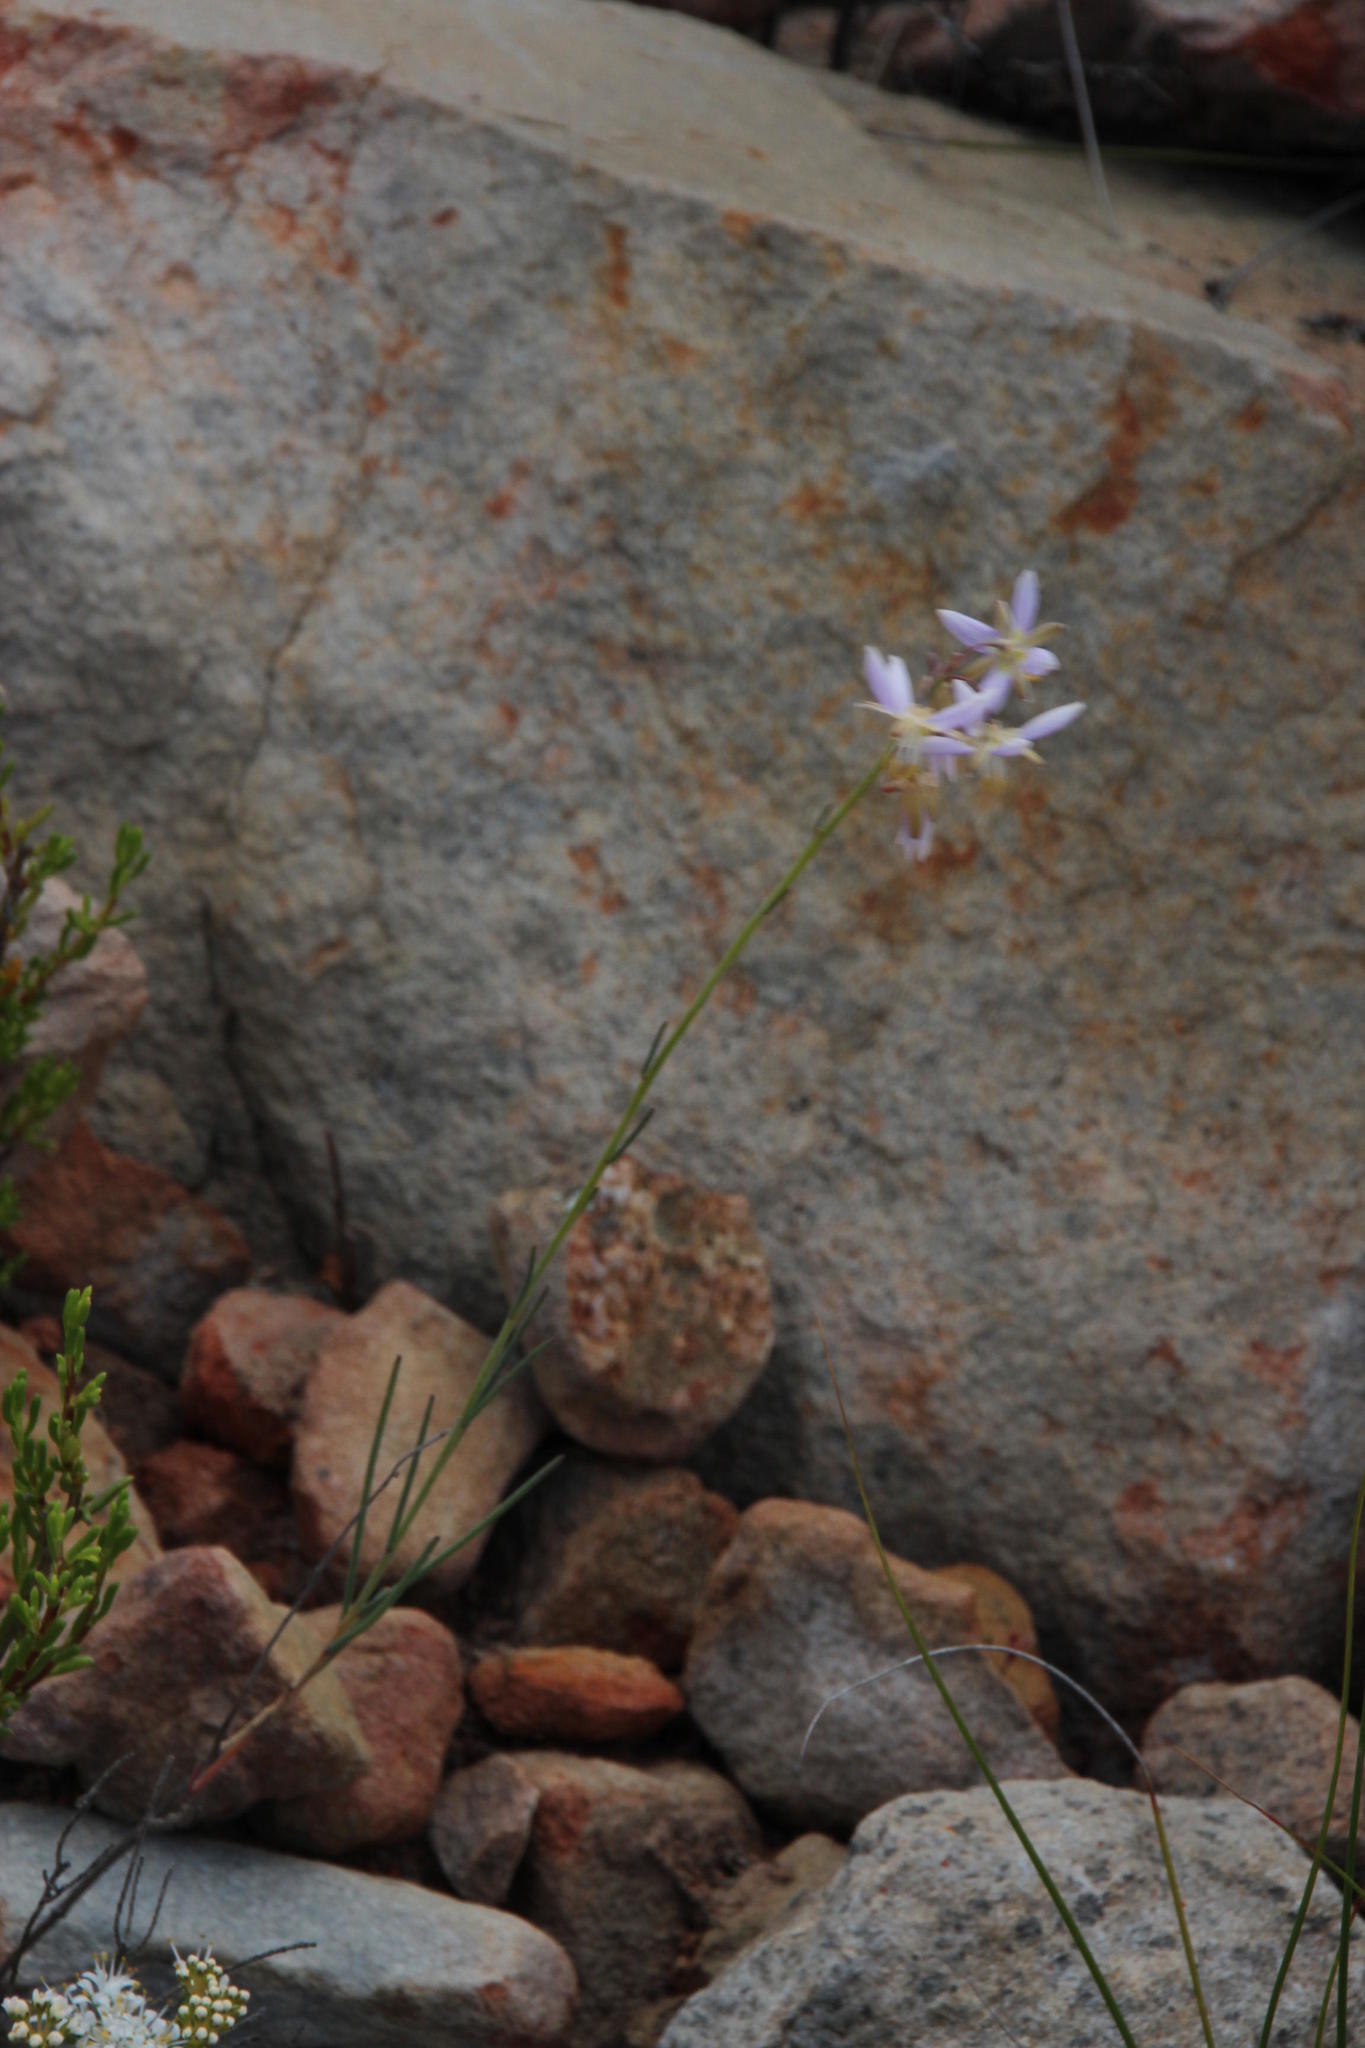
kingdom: Plantae
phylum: Tracheophyta
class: Magnoliopsida
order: Brassicales
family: Brassicaceae
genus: Heliophila
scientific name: Heliophila cornuta
